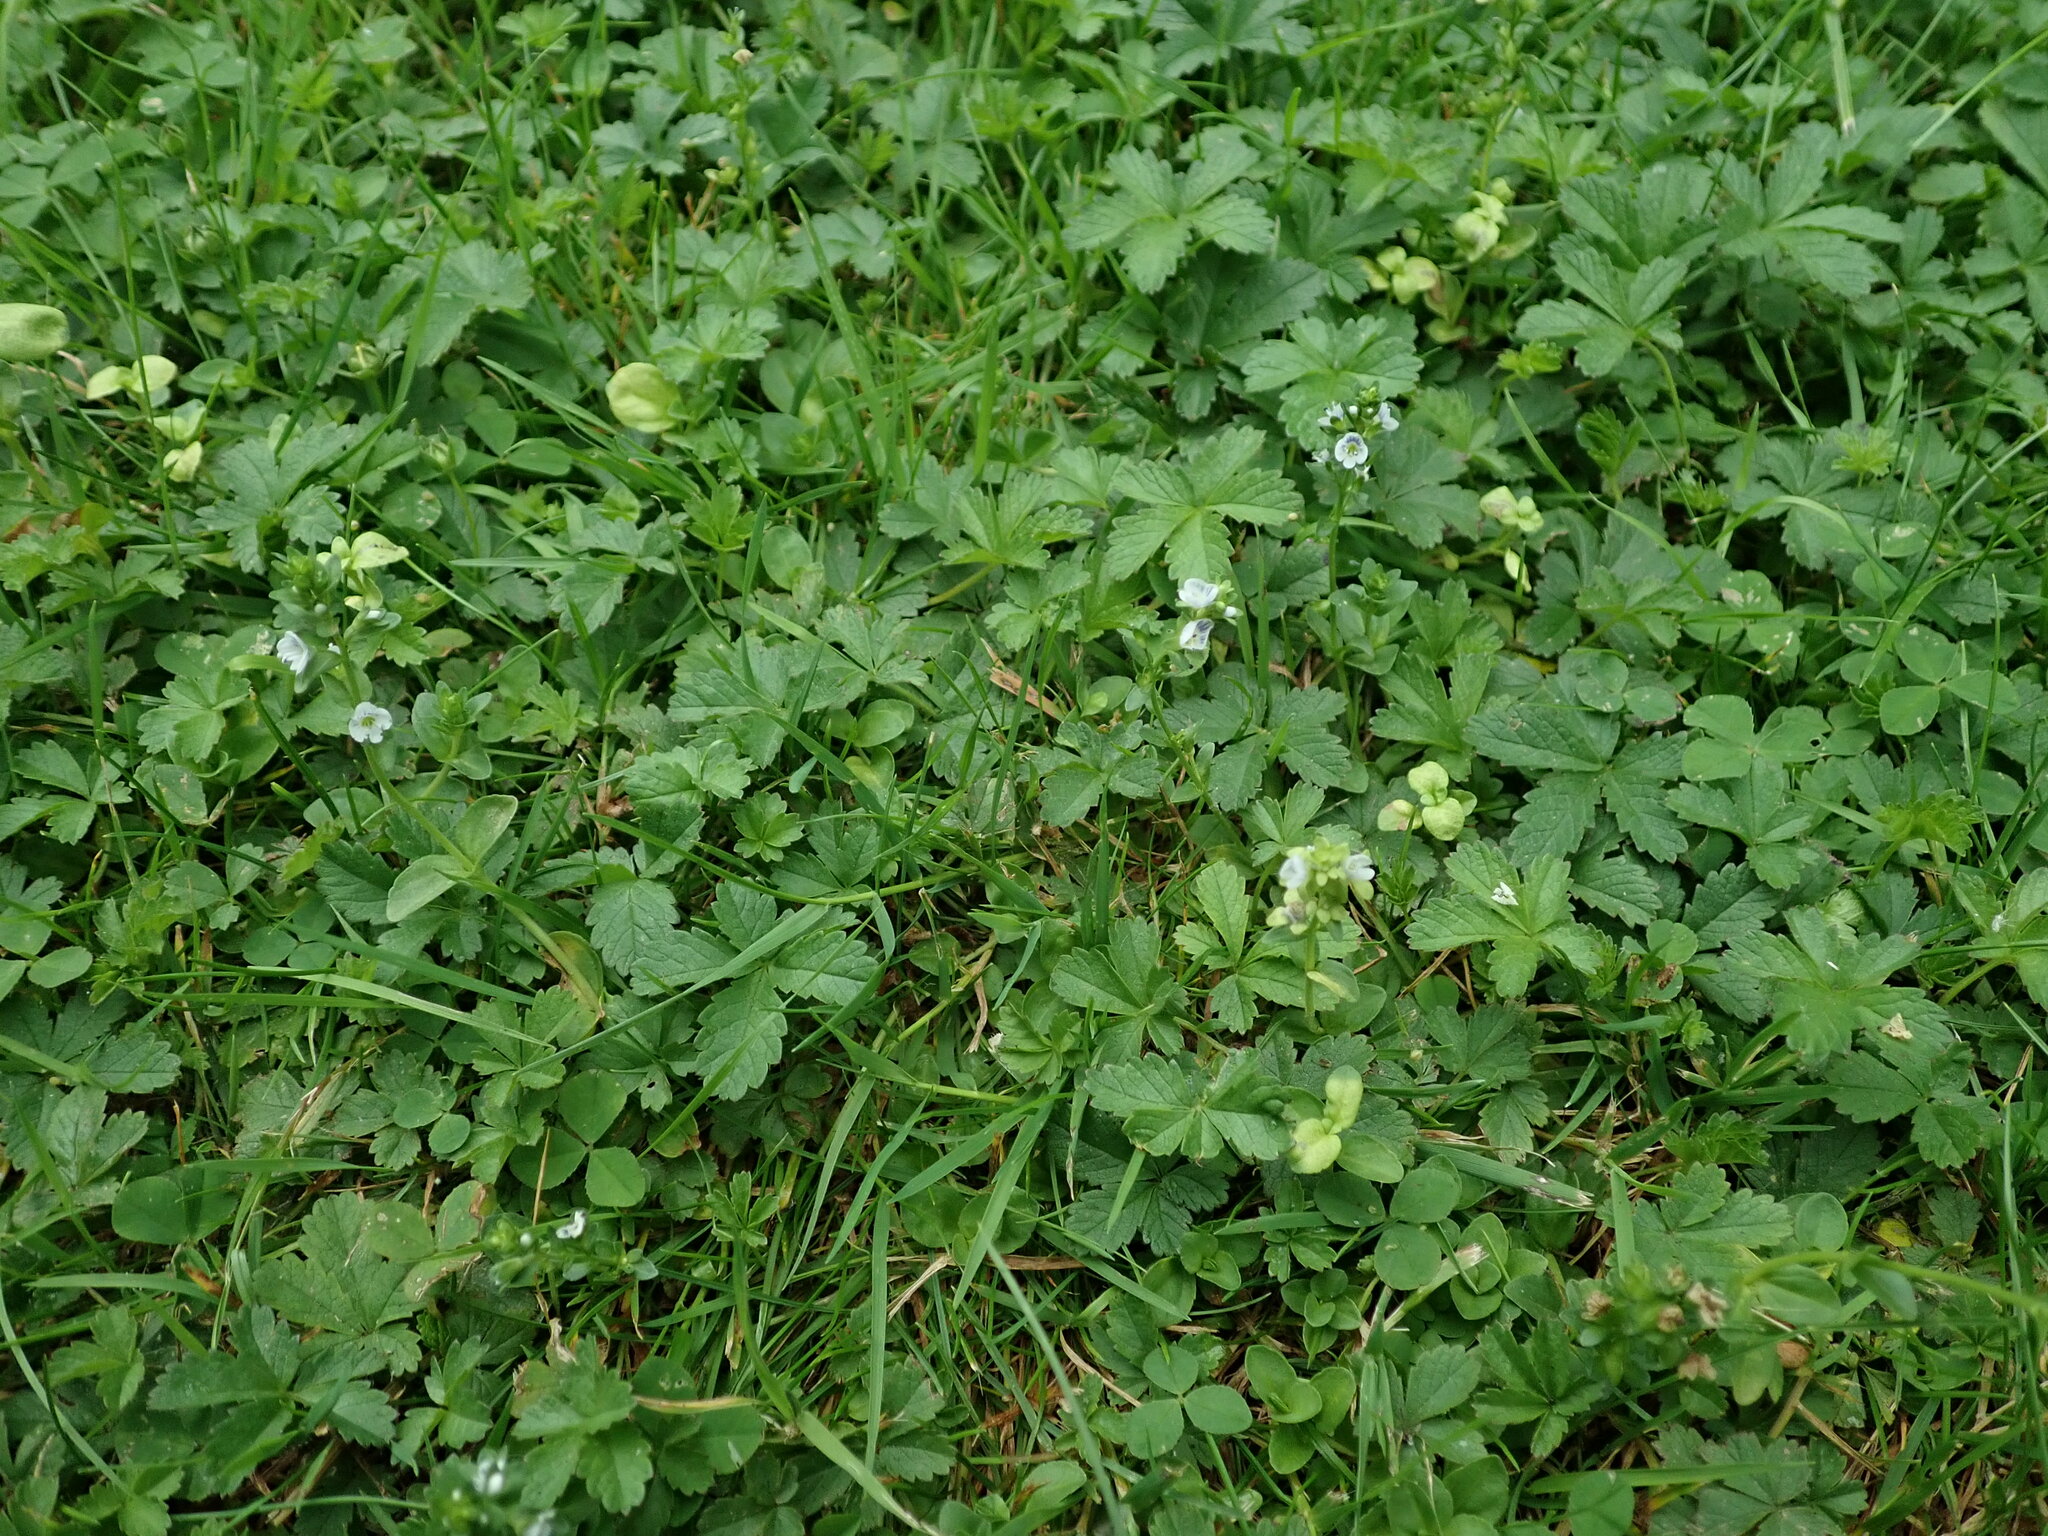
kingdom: Plantae
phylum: Tracheophyta
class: Magnoliopsida
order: Lamiales
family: Plantaginaceae
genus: Veronica
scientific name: Veronica serpyllifolia
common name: Thyme-leaved speedwell
